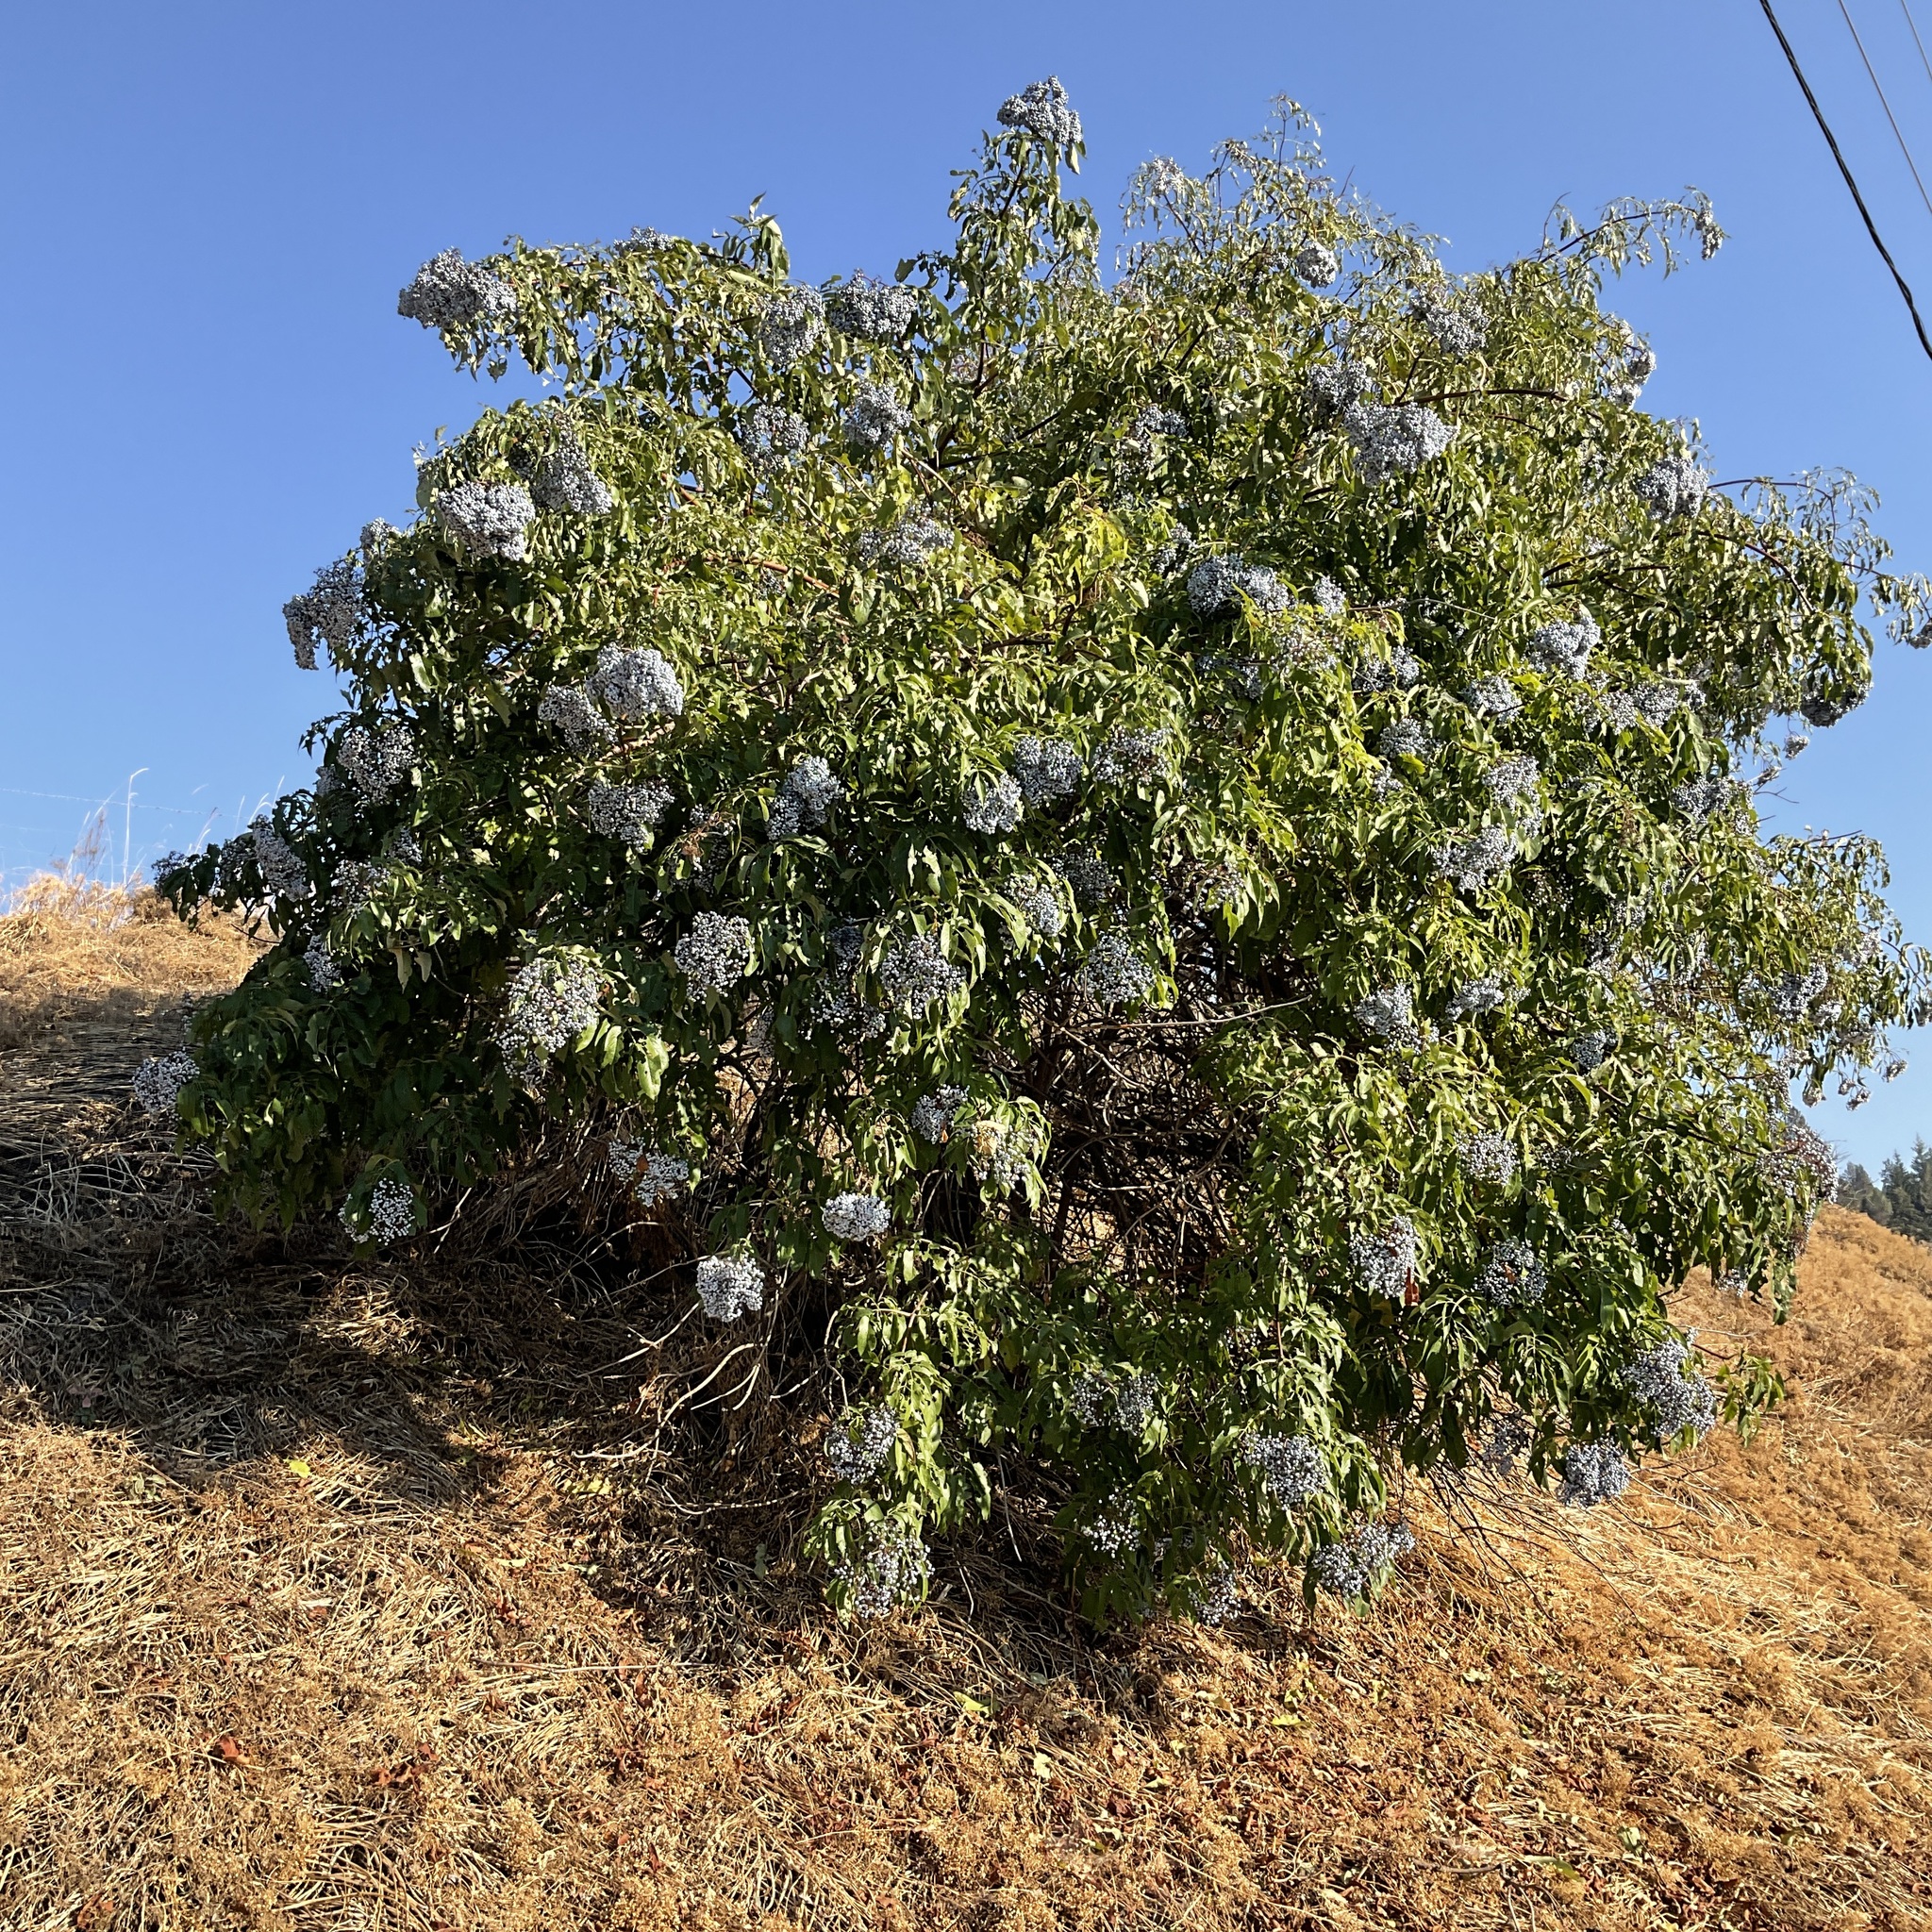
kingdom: Plantae
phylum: Tracheophyta
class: Magnoliopsida
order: Dipsacales
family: Viburnaceae
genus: Sambucus
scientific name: Sambucus cerulea
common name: Blue elder
